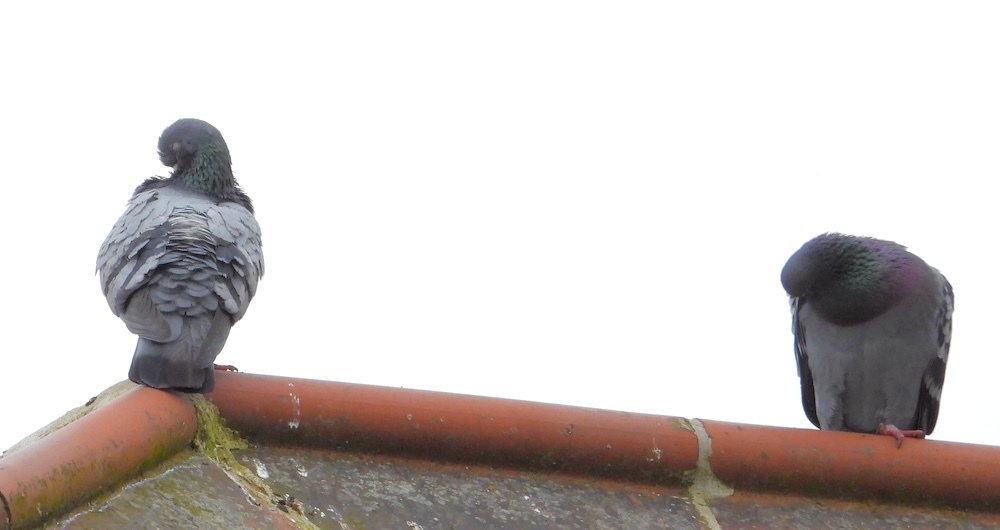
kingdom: Animalia
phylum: Chordata
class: Aves
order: Columbiformes
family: Columbidae
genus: Columba
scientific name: Columba livia
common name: Rock pigeon
